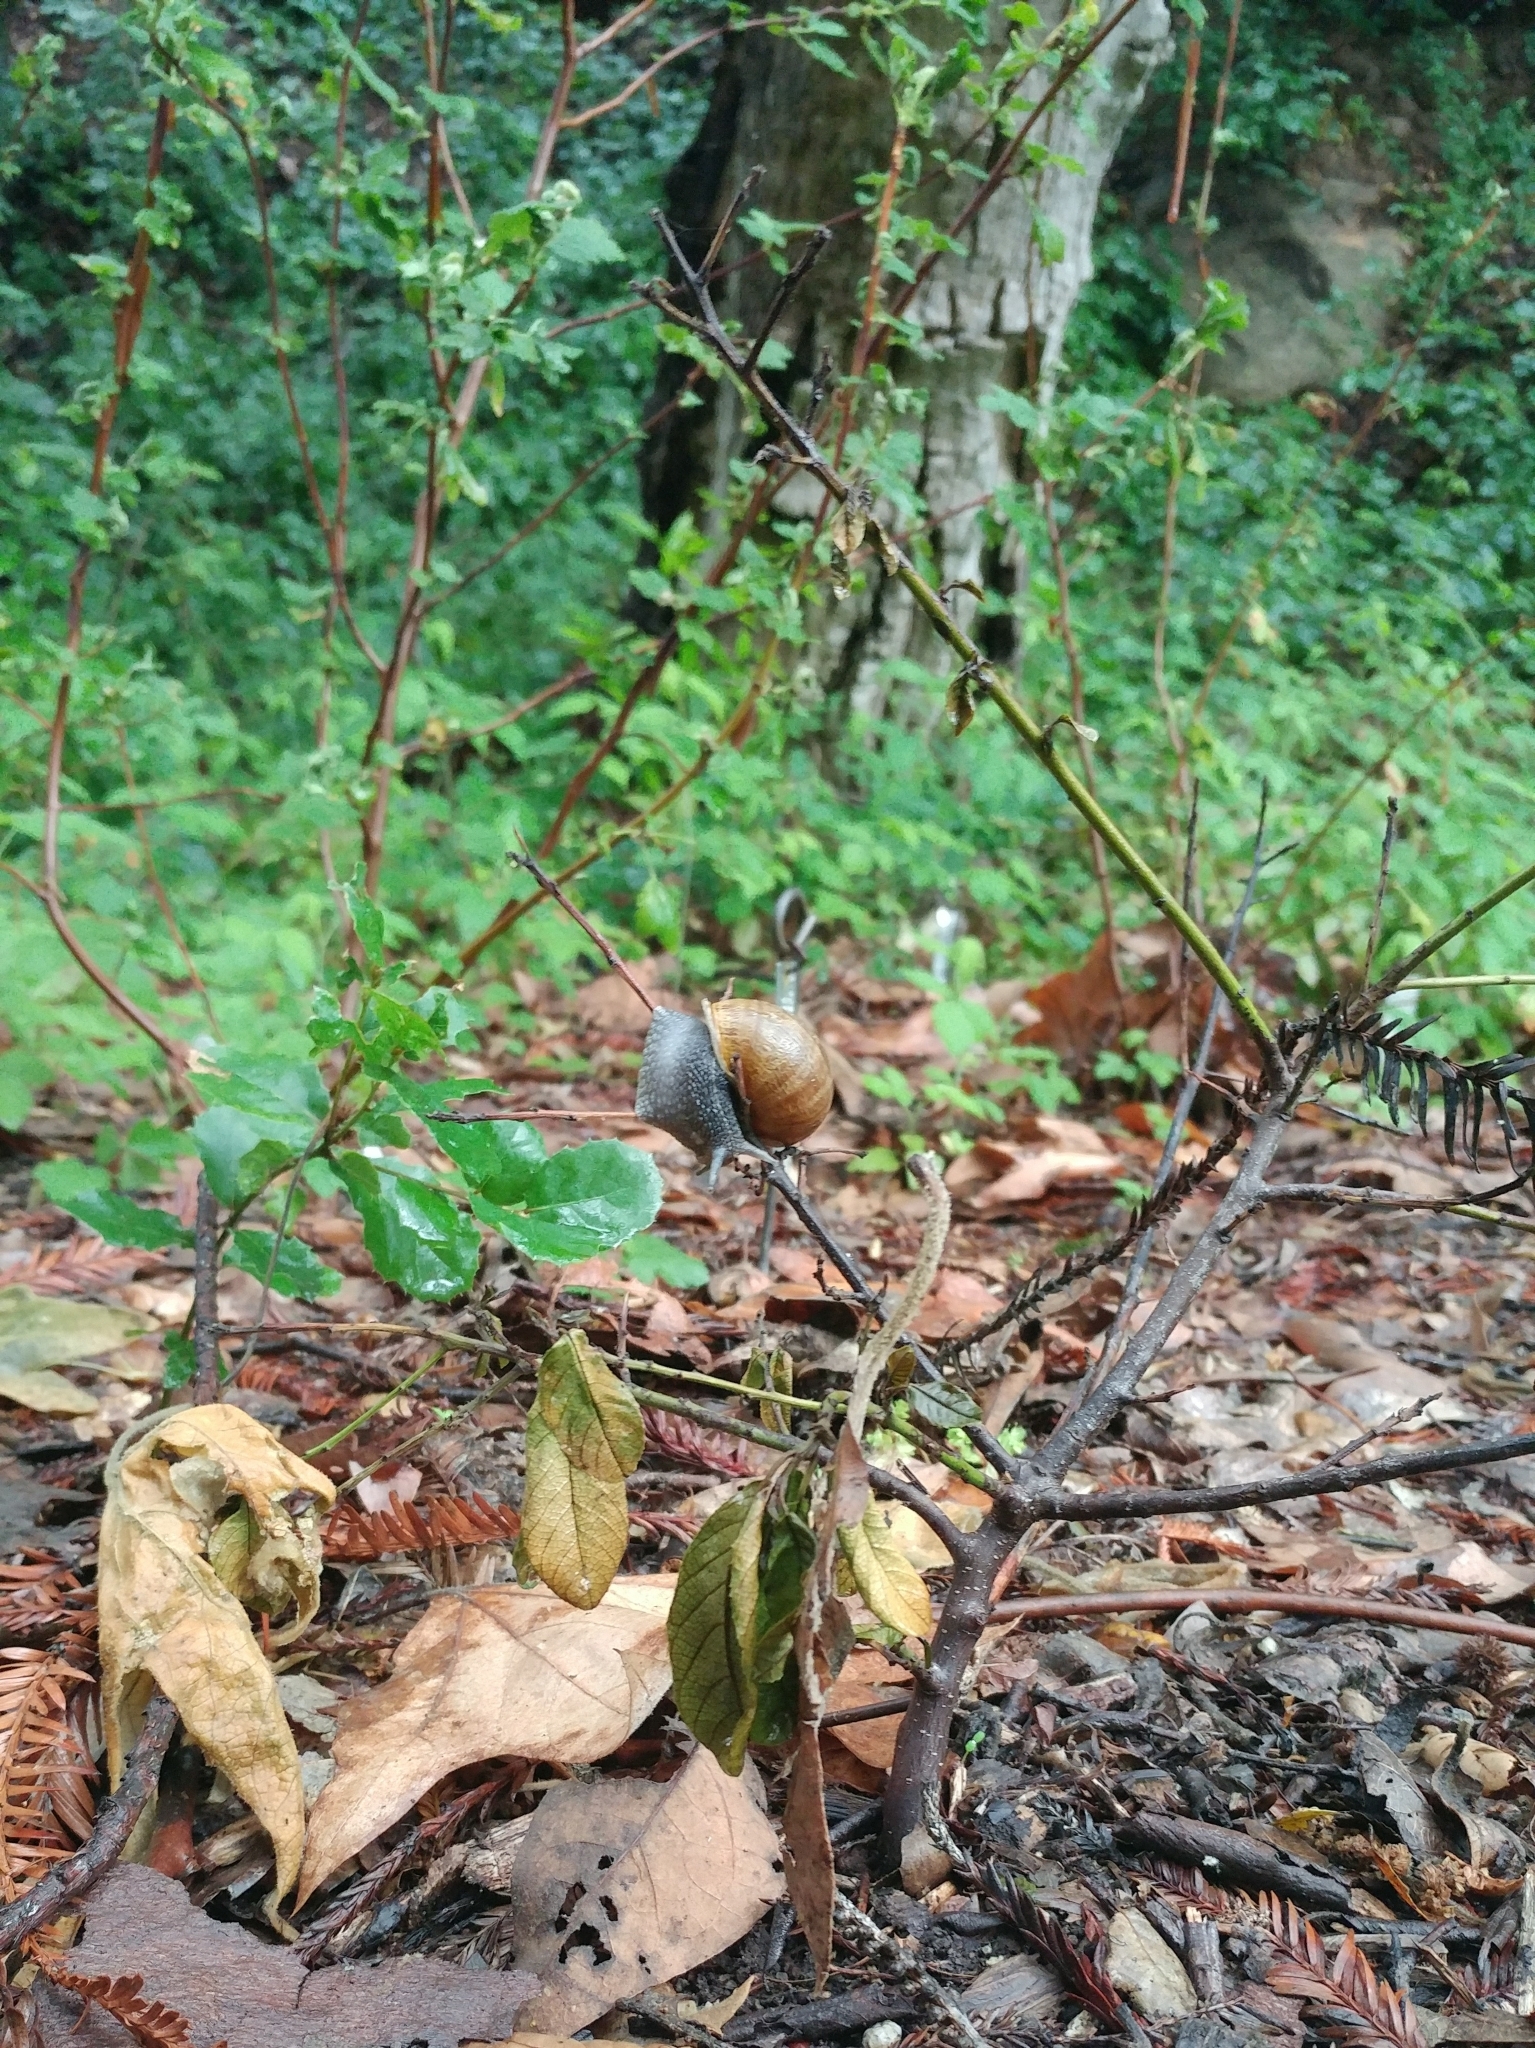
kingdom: Animalia
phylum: Mollusca
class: Gastropoda
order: Stylommatophora
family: Helicidae
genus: Cornu
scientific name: Cornu aspersum
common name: Brown garden snail
